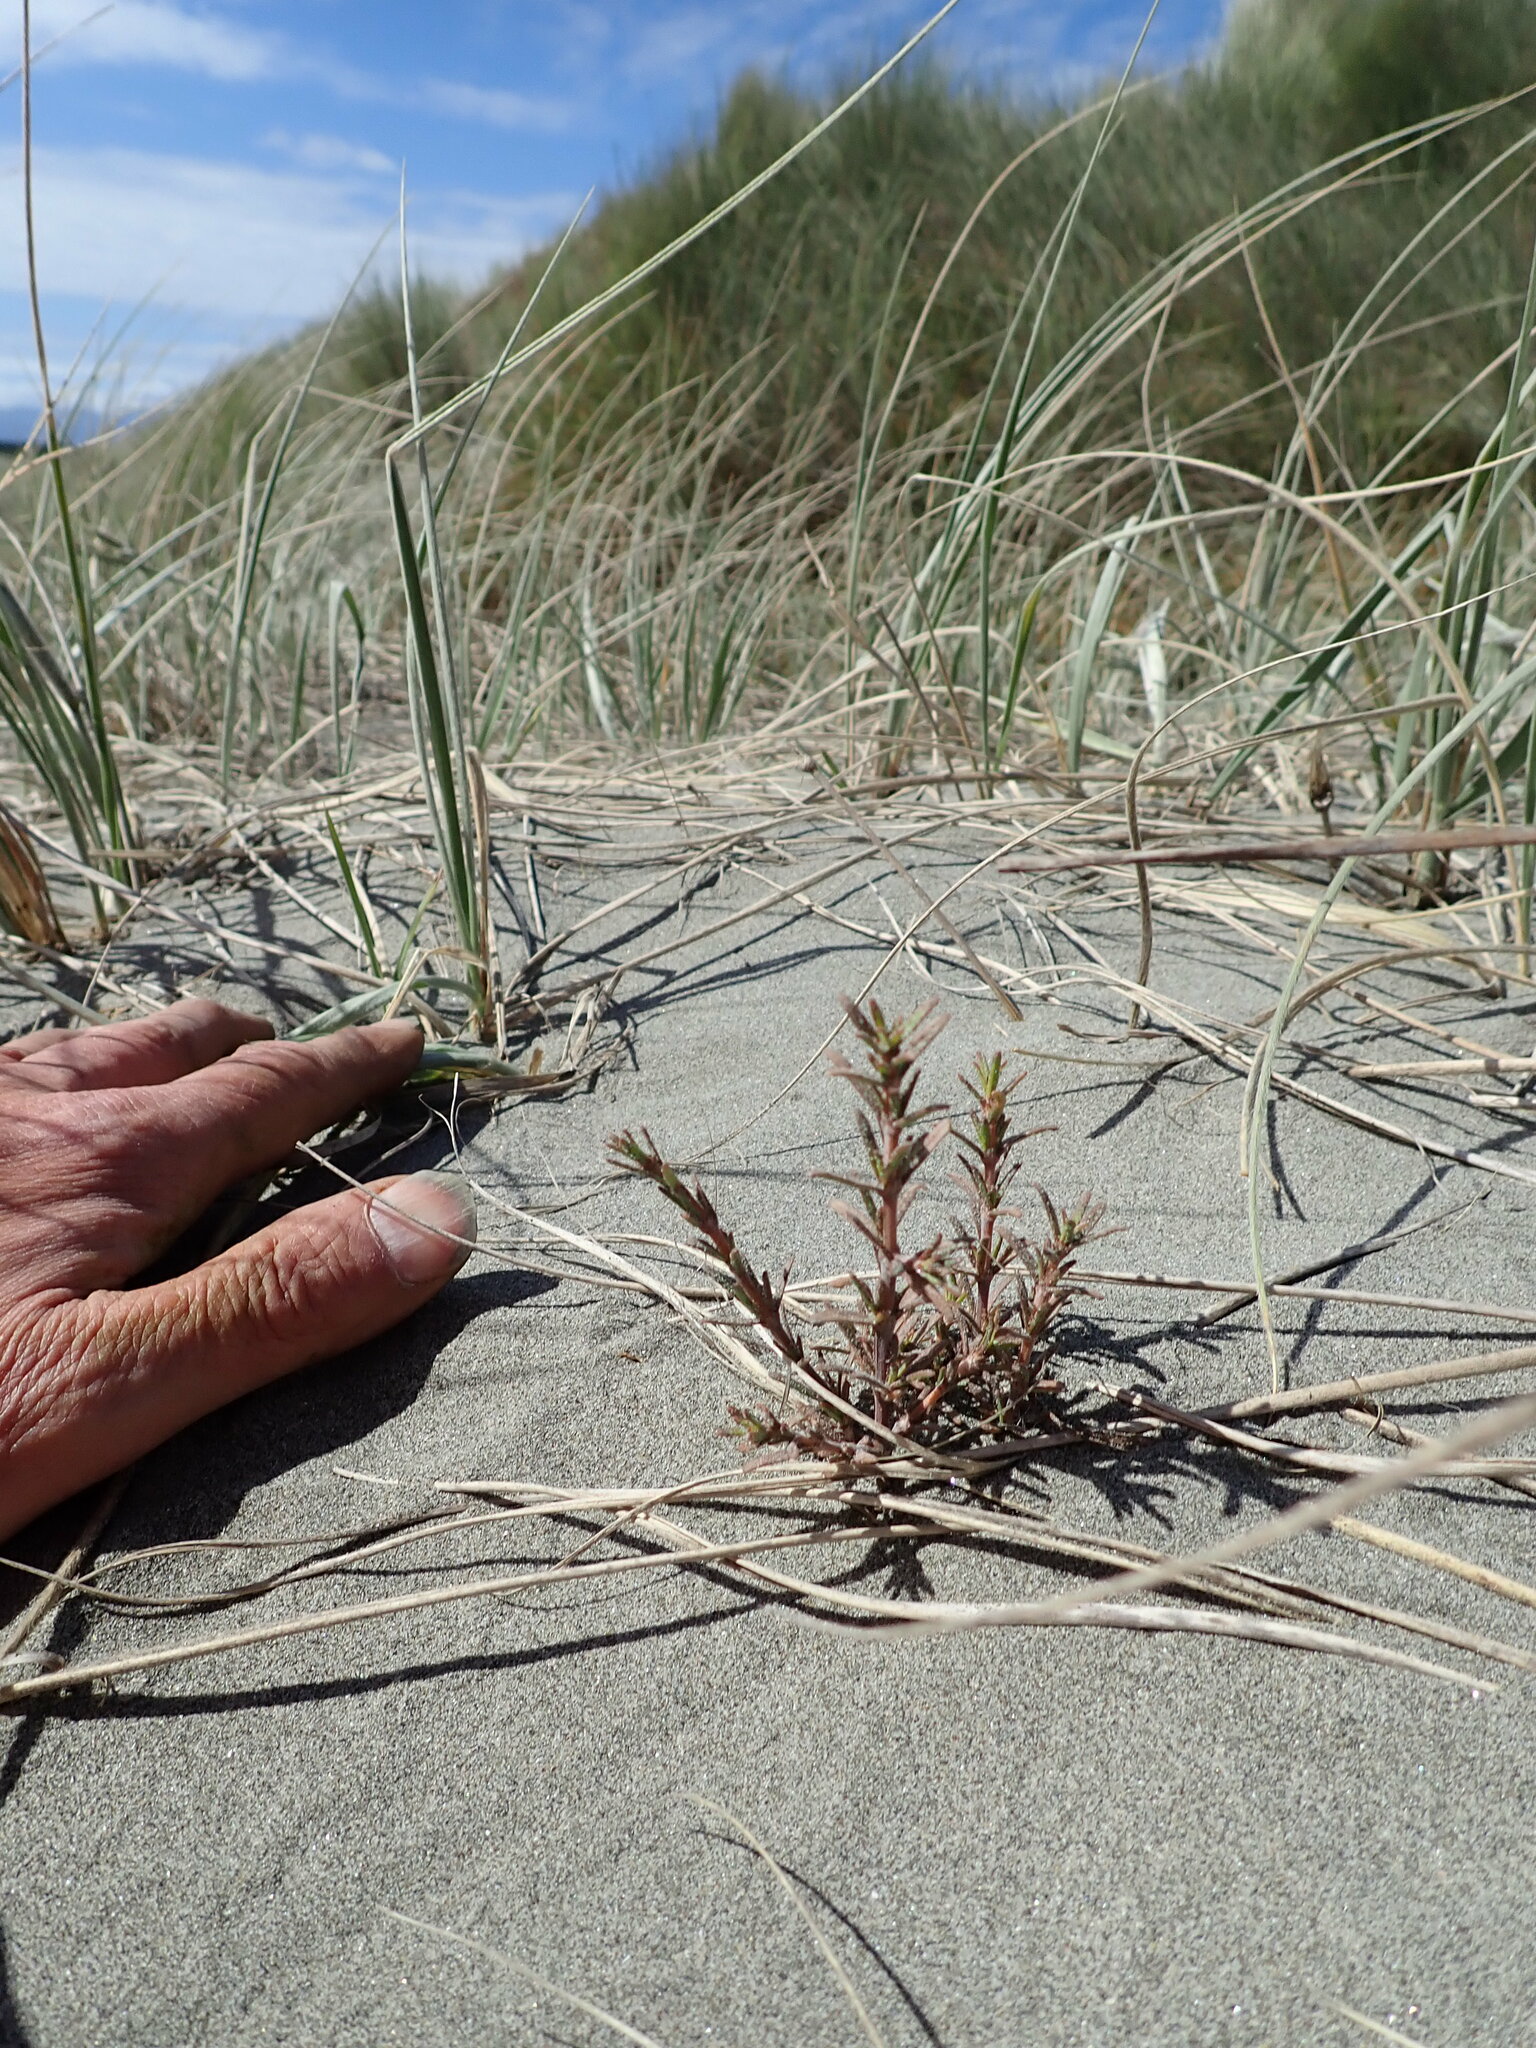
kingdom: Plantae
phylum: Tracheophyta
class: Magnoliopsida
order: Gentianales
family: Rubiaceae
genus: Coprosma
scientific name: Coprosma acerosa
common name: Sand coprosma
